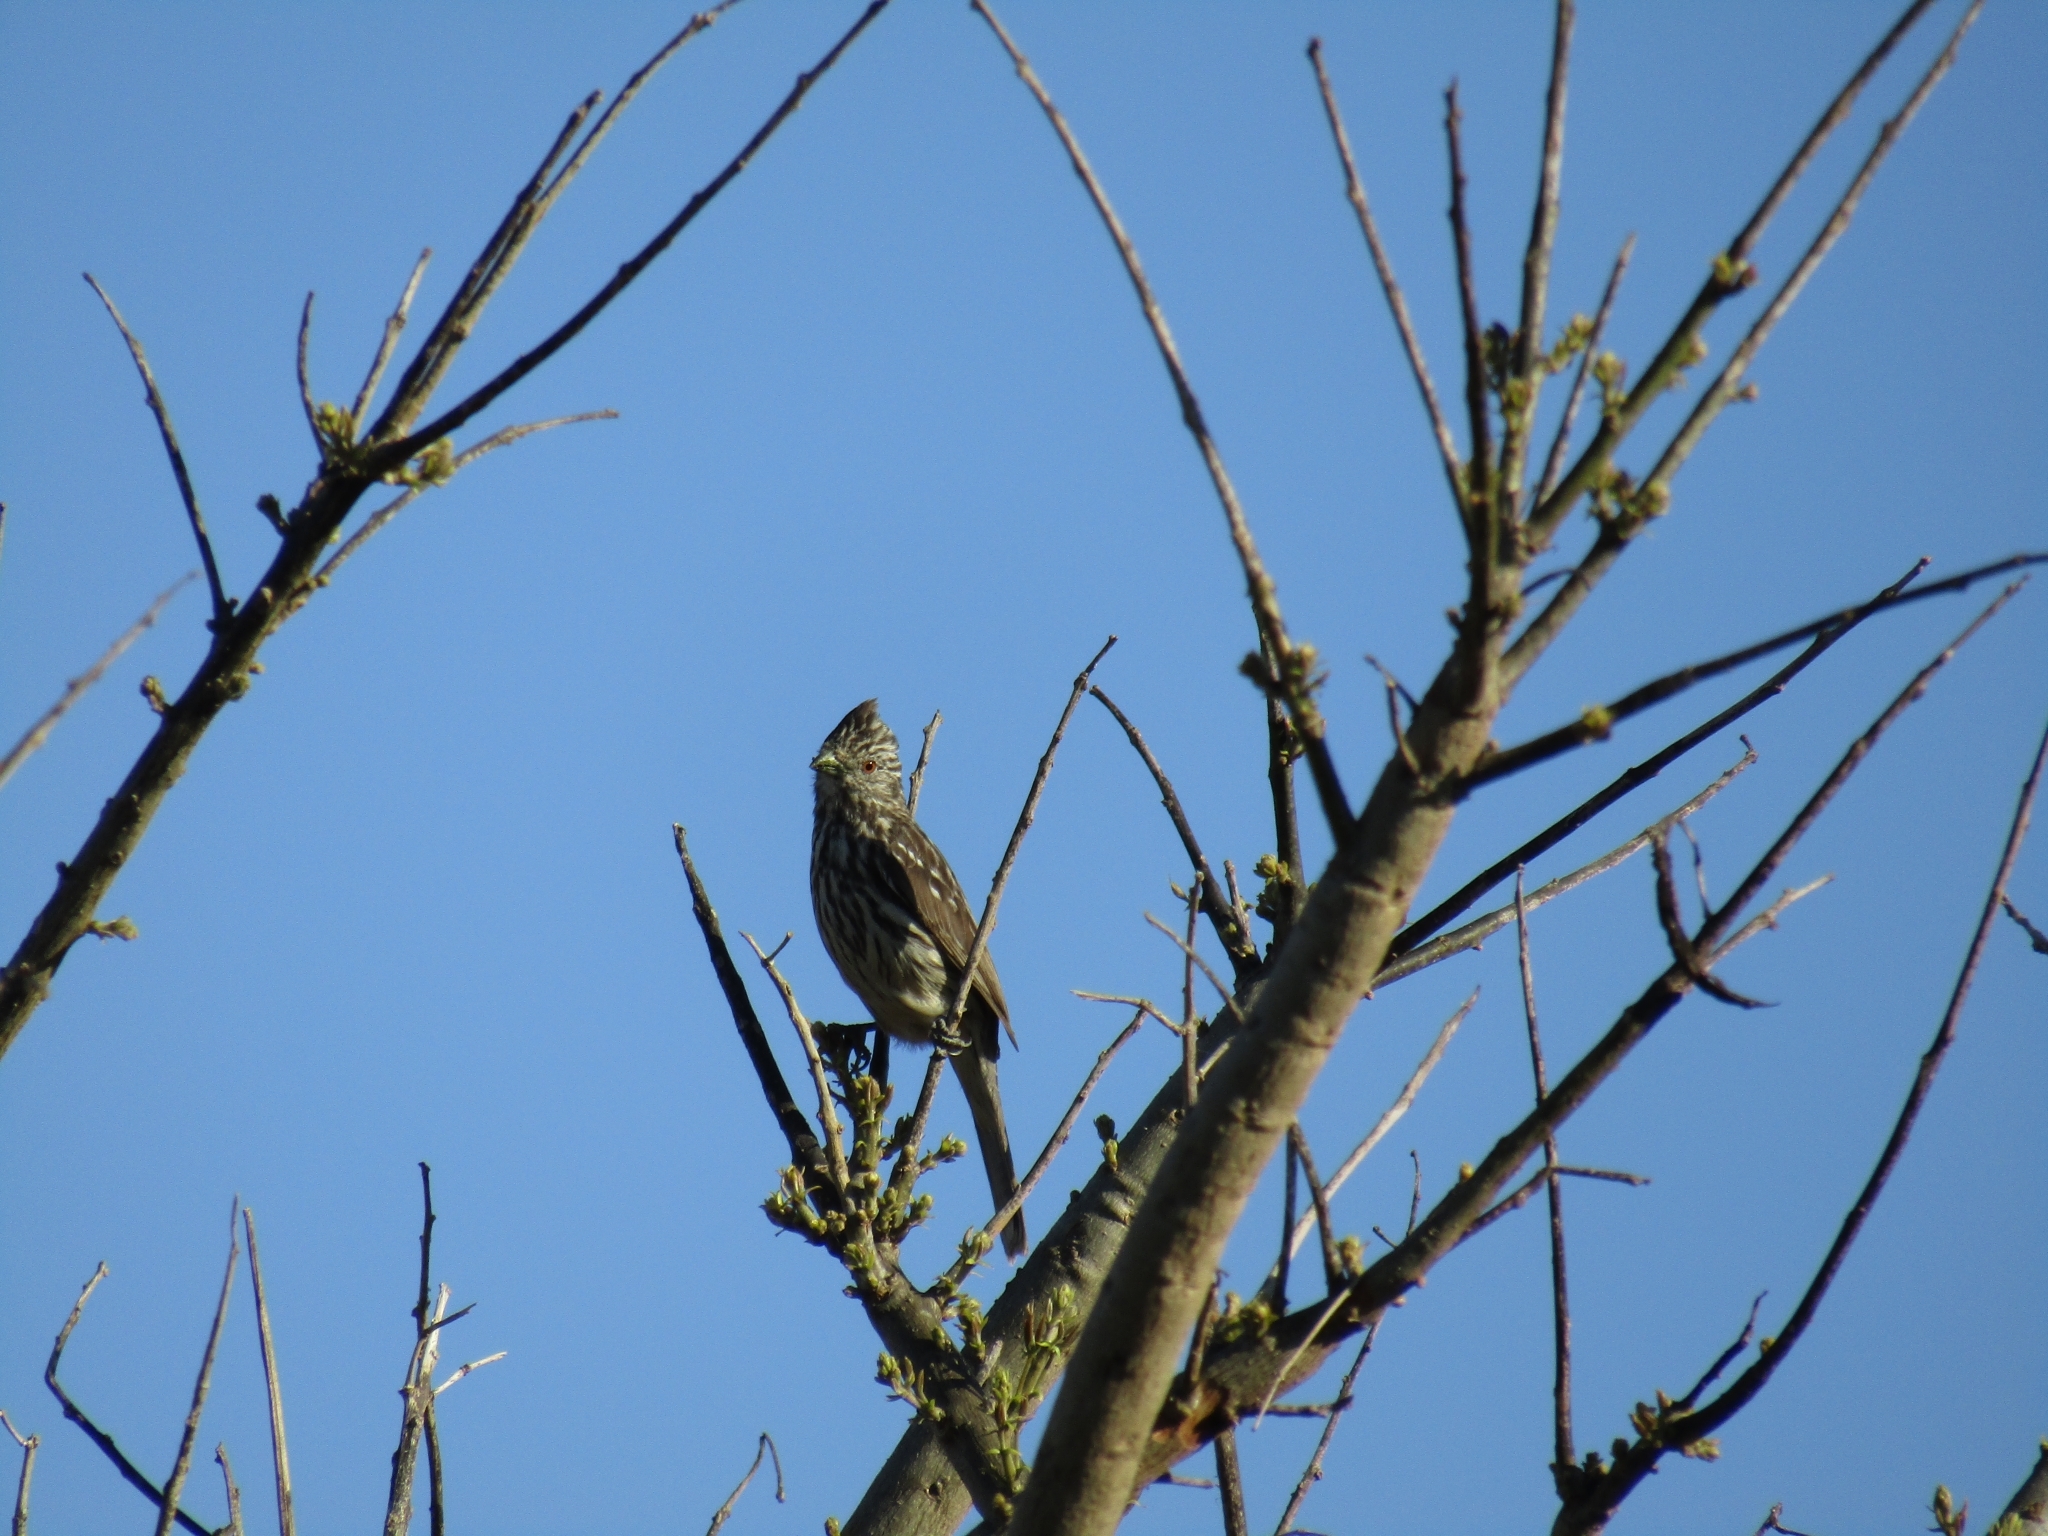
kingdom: Animalia
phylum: Chordata
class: Aves
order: Passeriformes
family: Cotingidae
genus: Phytotoma
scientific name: Phytotoma rutila
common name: White-tipped plantcutter
